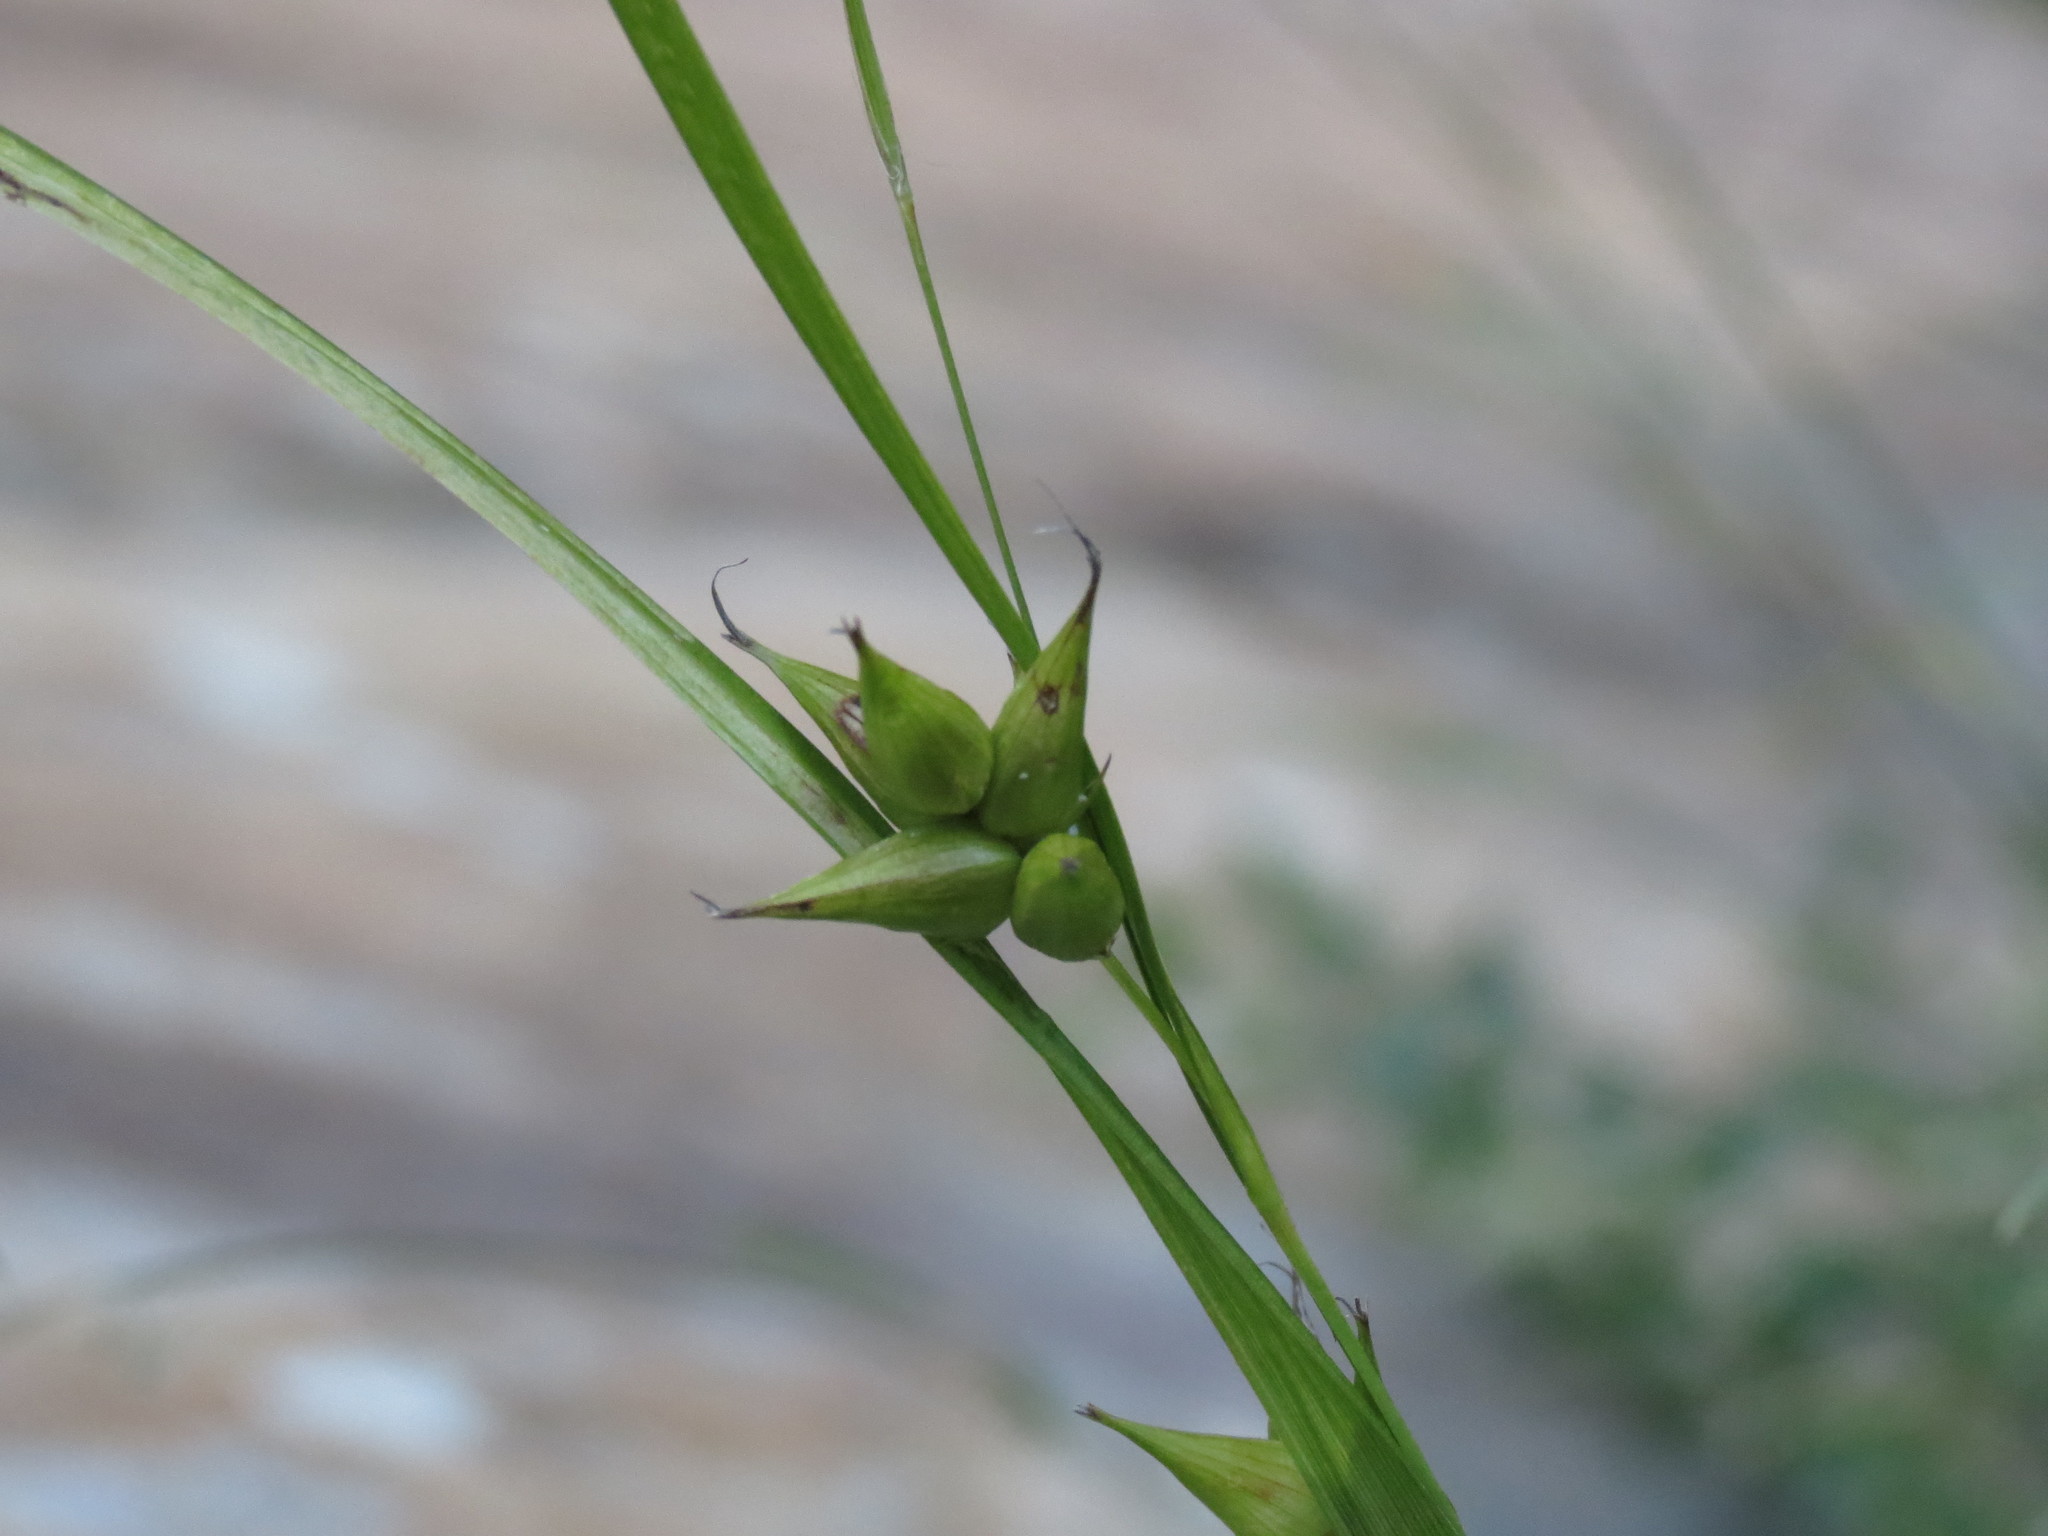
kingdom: Plantae
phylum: Tracheophyta
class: Liliopsida
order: Poales
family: Cyperaceae
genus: Carex
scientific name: Carex intumescens
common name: Greater bladder sedge
